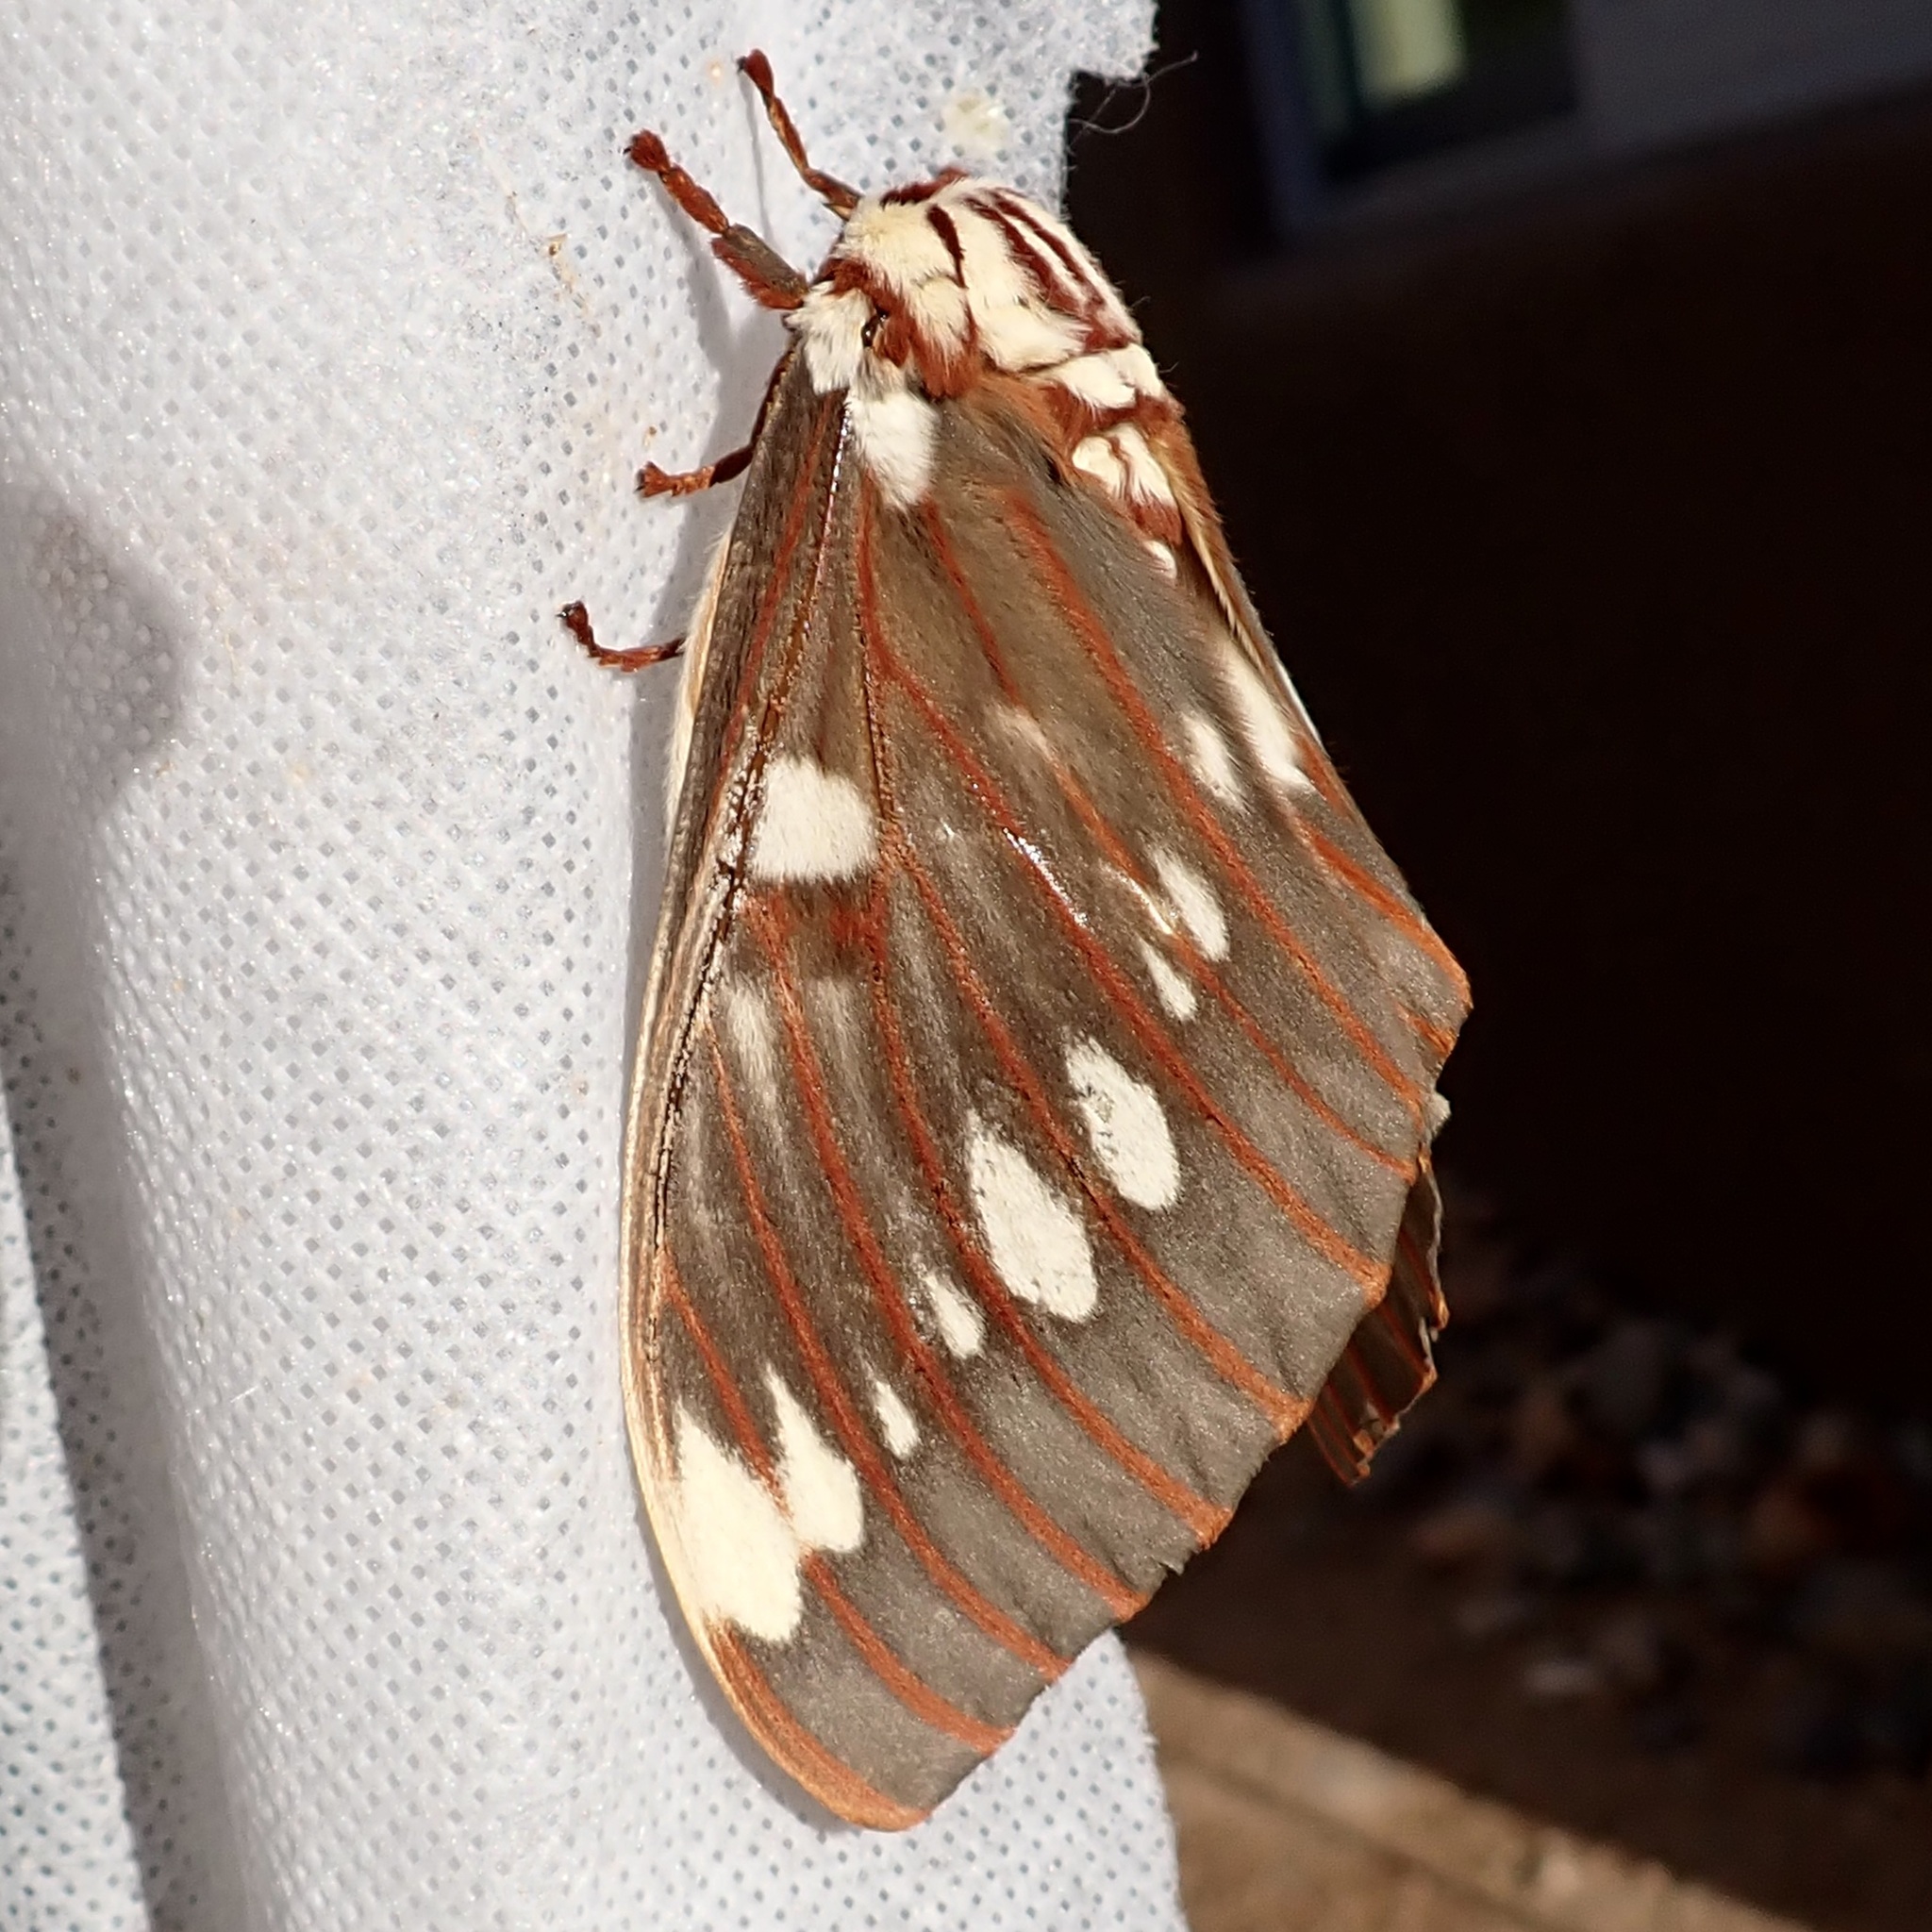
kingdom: Animalia
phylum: Arthropoda
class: Insecta
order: Lepidoptera
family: Saturniidae
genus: Citheronia
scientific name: Citheronia splendens
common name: Splendid royal moth
